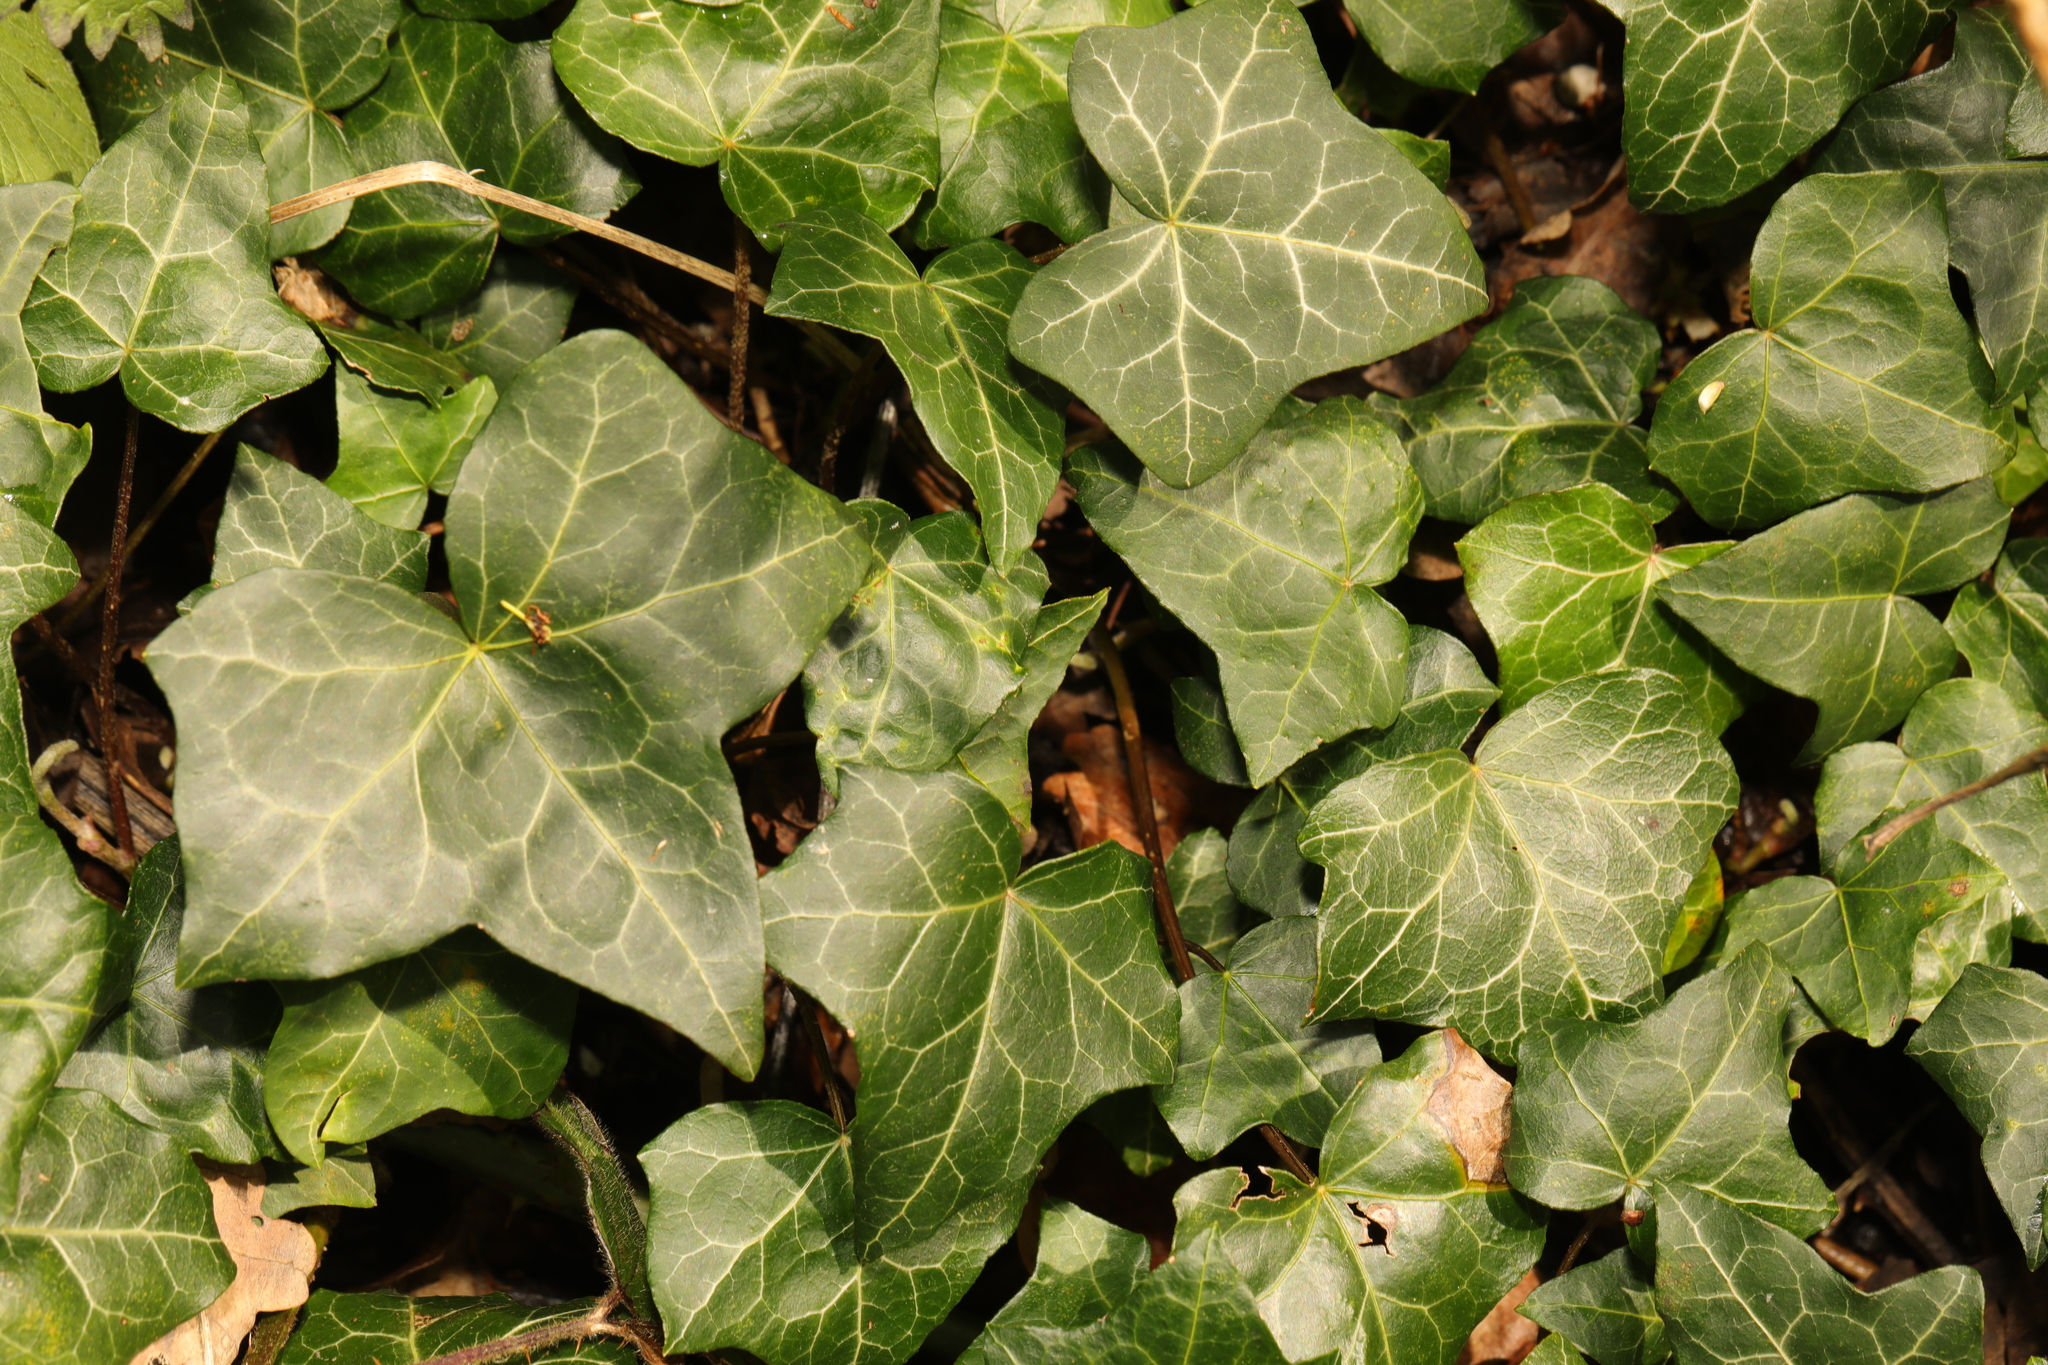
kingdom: Plantae
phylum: Tracheophyta
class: Magnoliopsida
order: Apiales
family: Araliaceae
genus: Hedera
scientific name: Hedera helix
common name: Ivy
